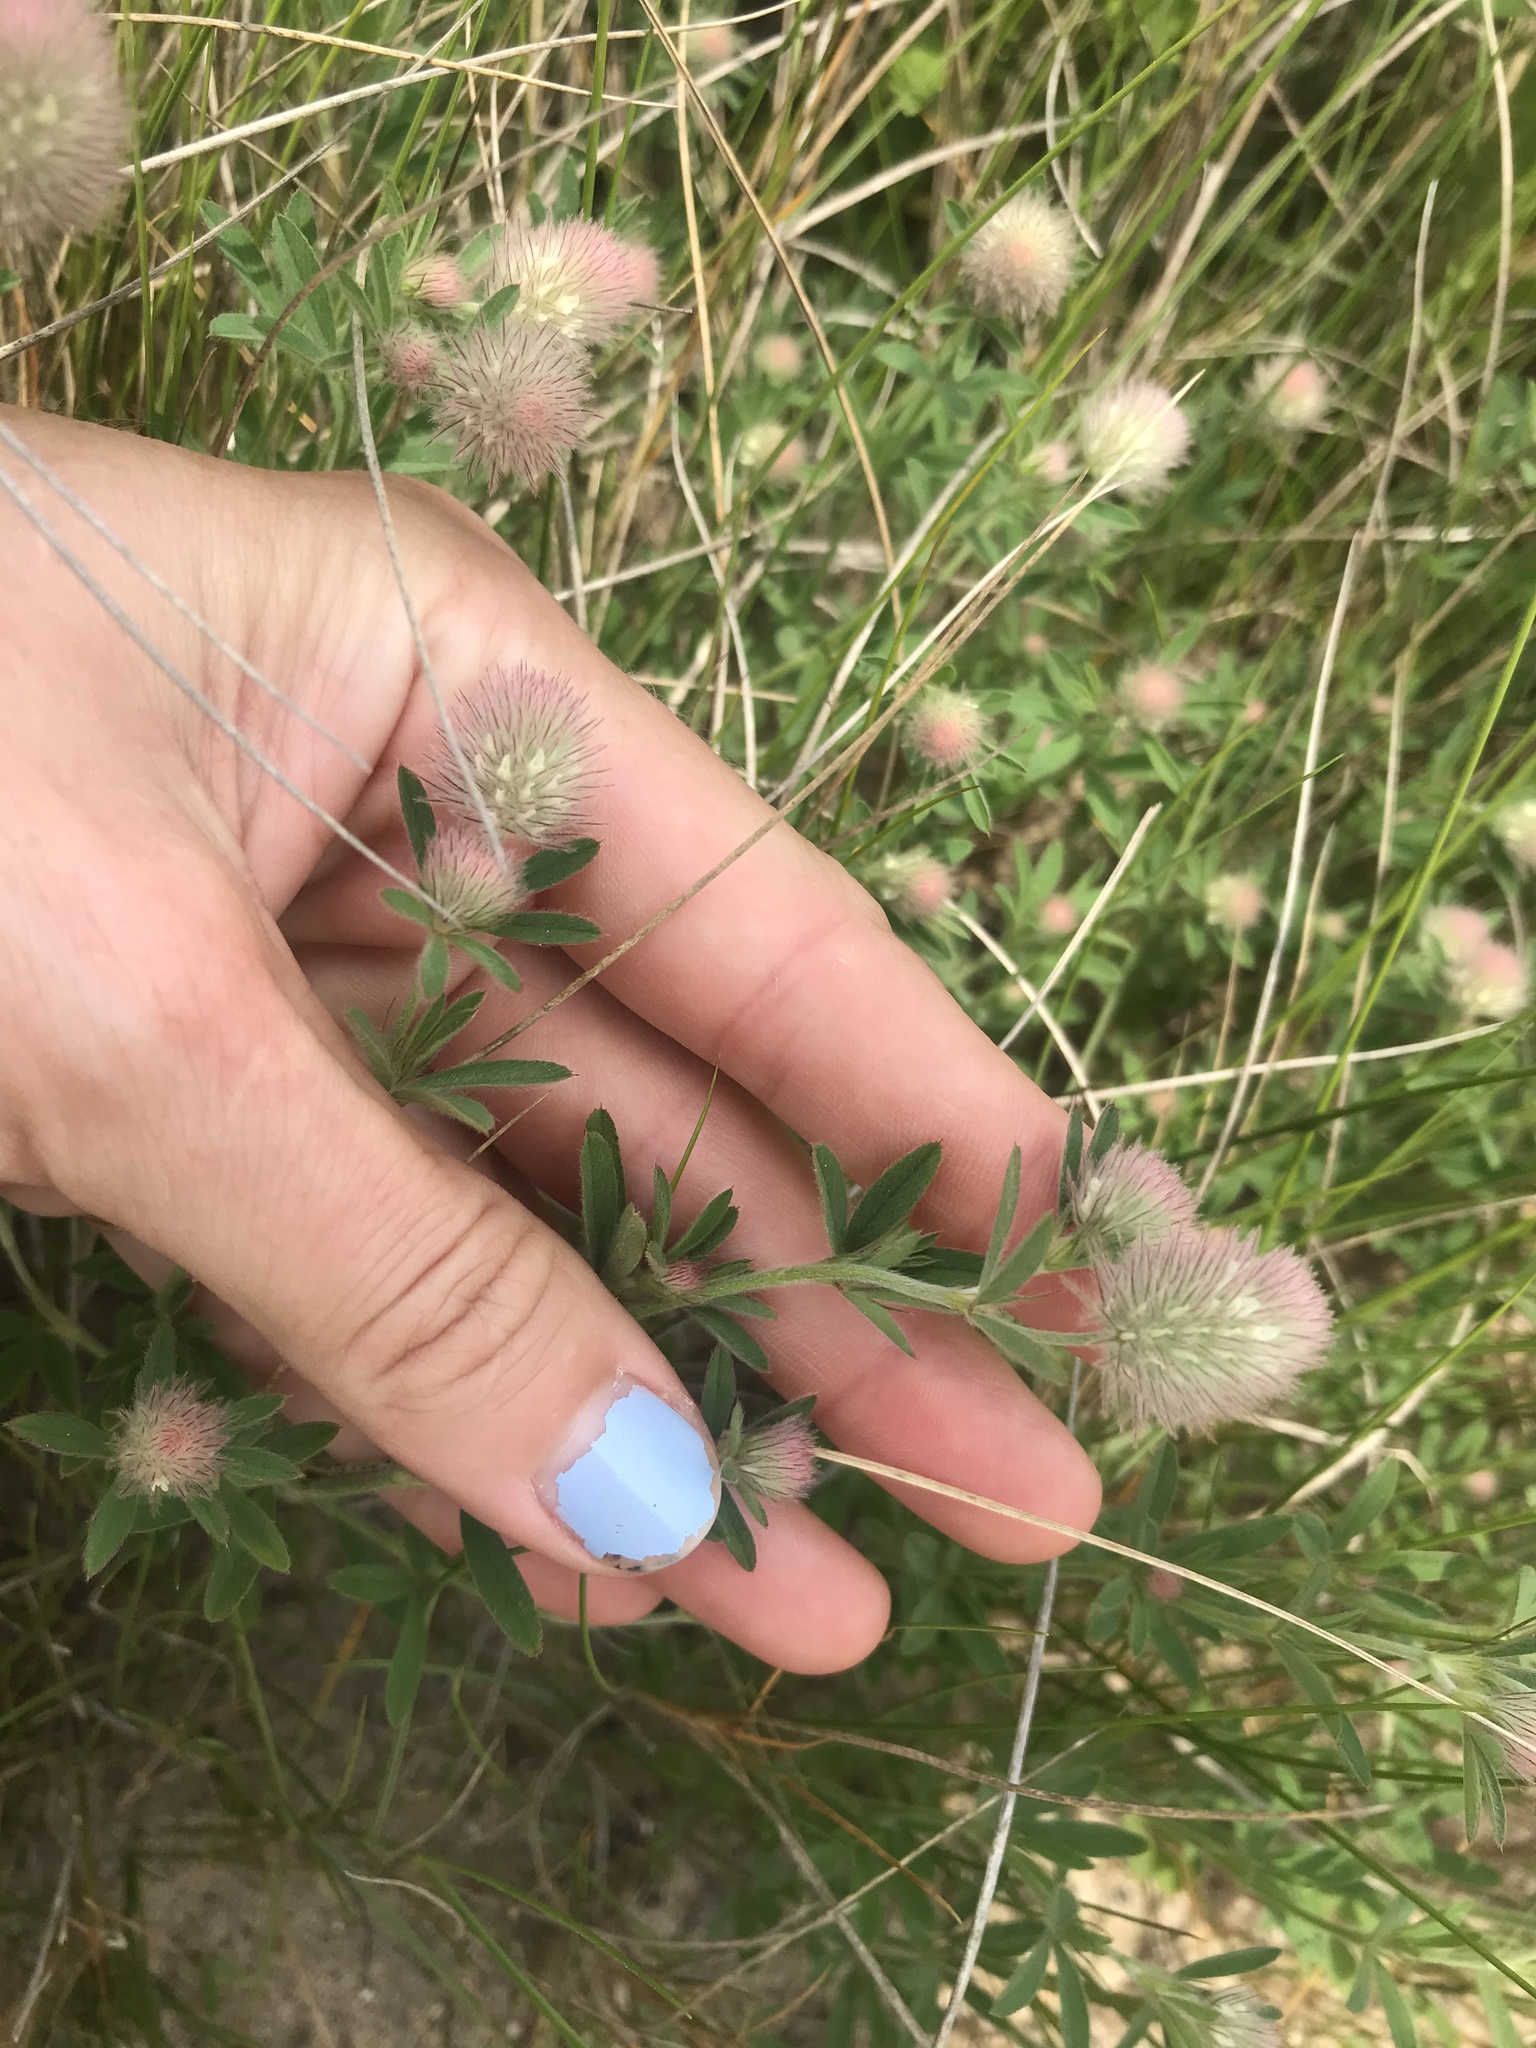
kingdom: Plantae
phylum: Tracheophyta
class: Magnoliopsida
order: Fabales
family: Fabaceae
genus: Trifolium
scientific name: Trifolium arvense
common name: Hare's-foot clover
